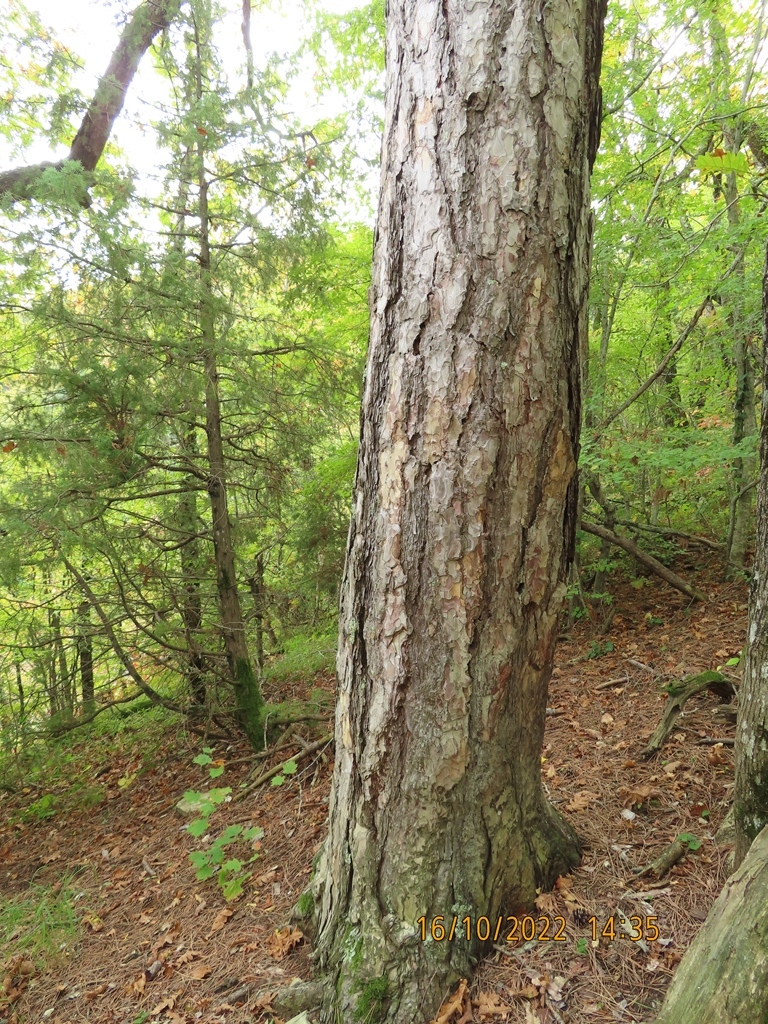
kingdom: Plantae
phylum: Tracheophyta
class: Pinopsida
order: Pinales
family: Pinaceae
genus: Pinus
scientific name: Pinus nigra
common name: Austrian pine
